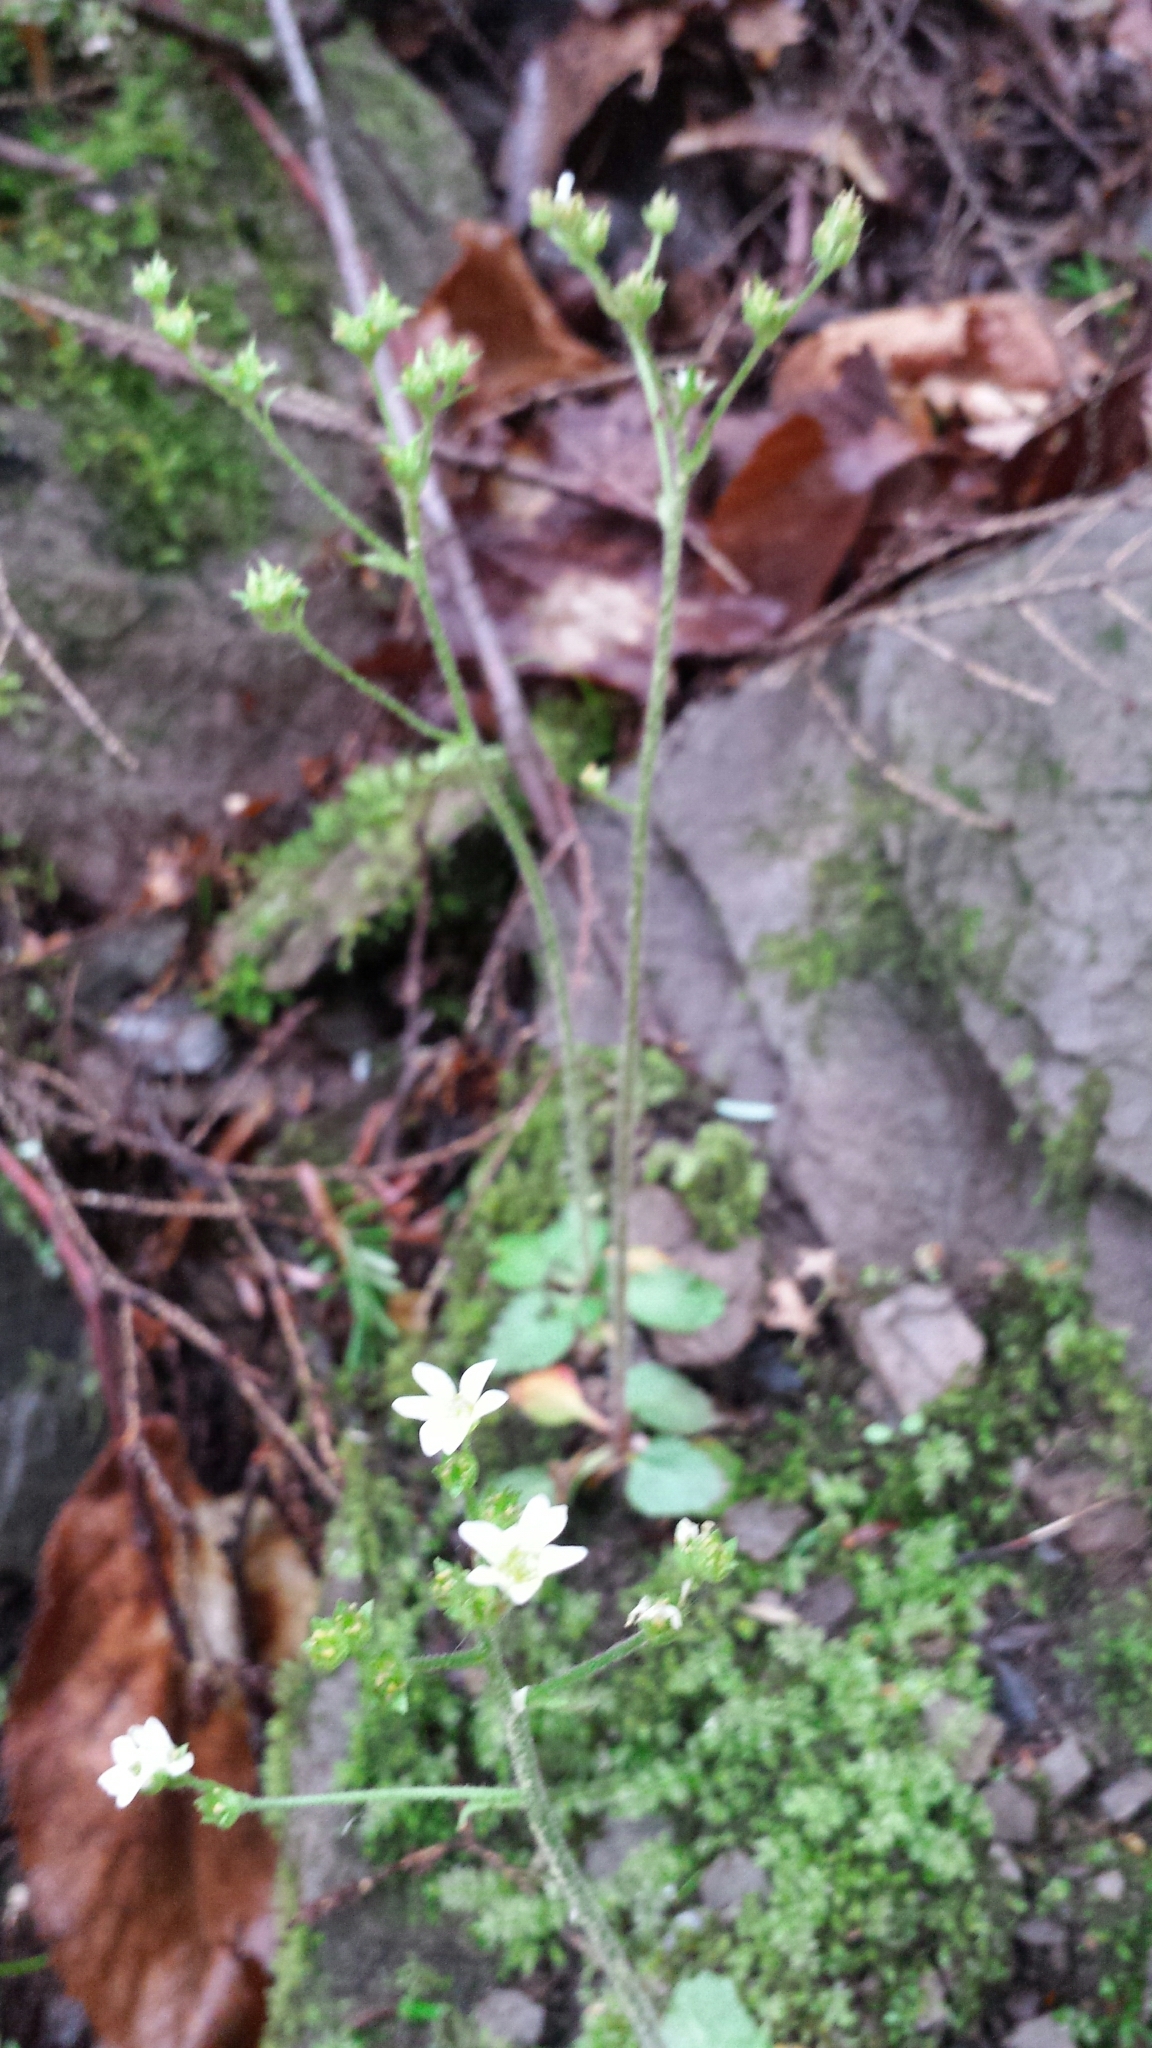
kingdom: Plantae
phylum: Tracheophyta
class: Magnoliopsida
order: Saxifragales
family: Saxifragaceae
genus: Micranthes
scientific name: Micranthes virginiensis
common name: Early saxifrage
